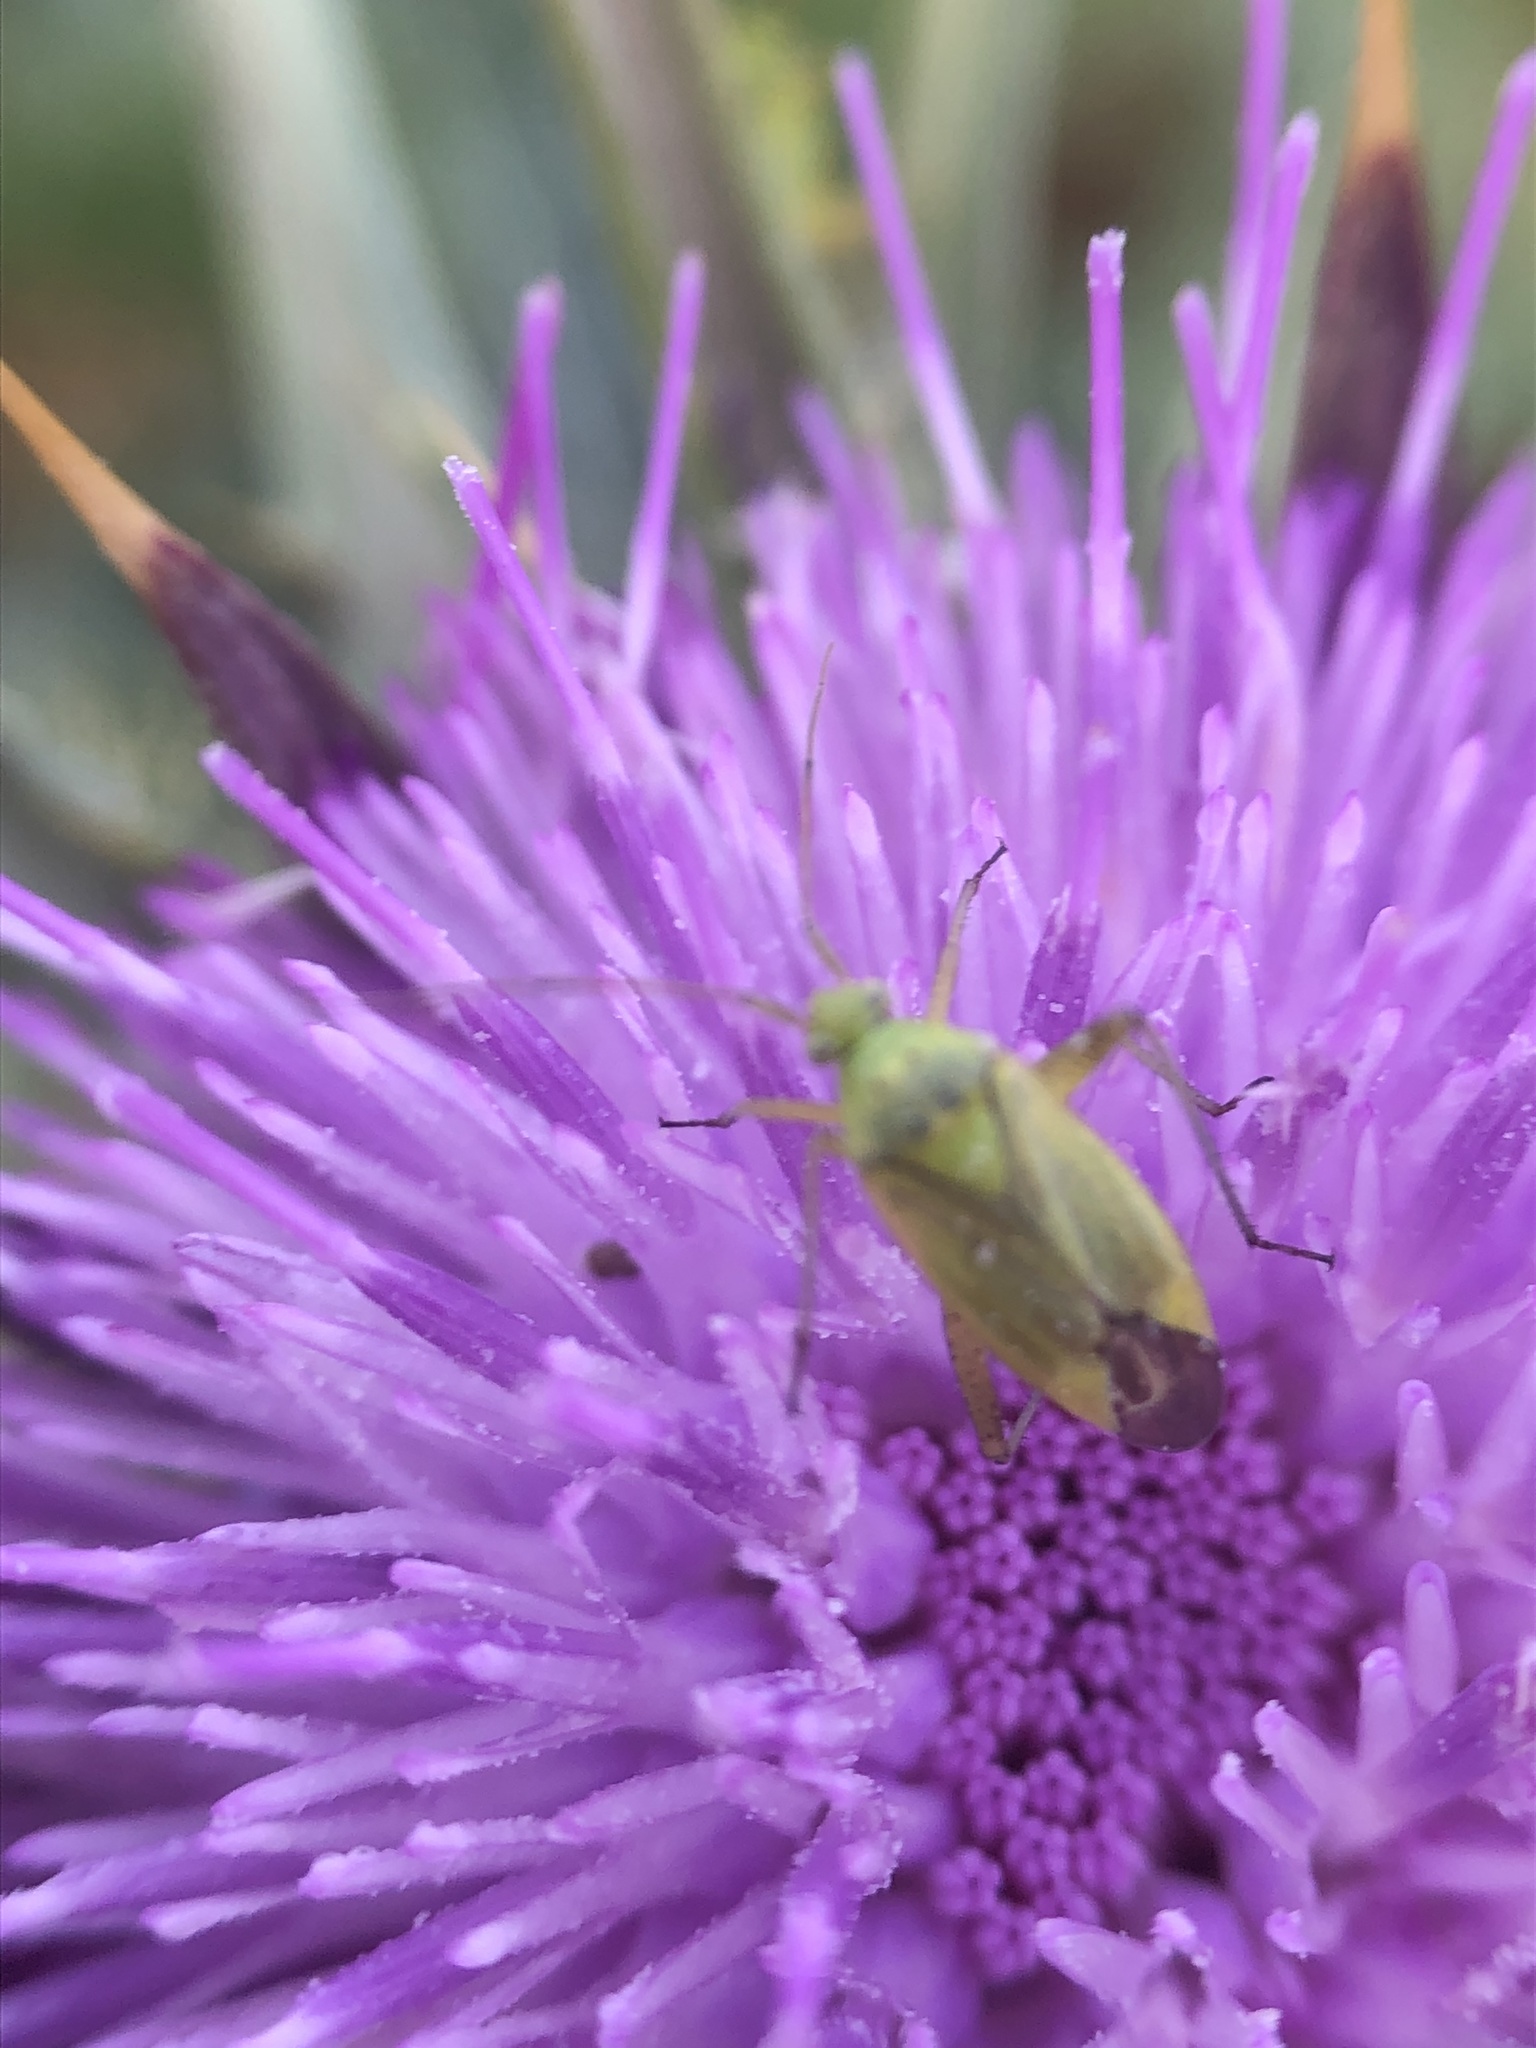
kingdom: Animalia
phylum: Arthropoda
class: Insecta
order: Hemiptera
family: Miridae
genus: Closterotomus
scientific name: Closterotomus norvegicus
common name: Plant bug
